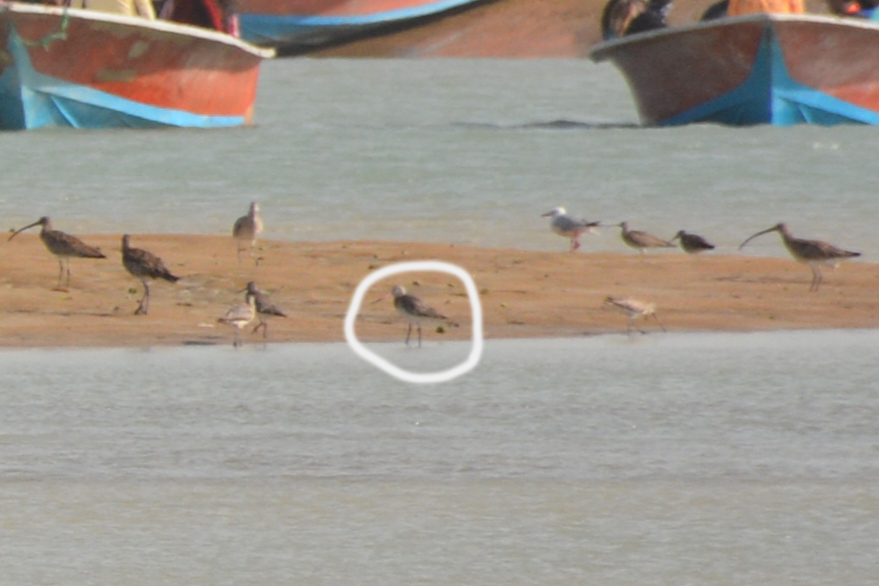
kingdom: Animalia
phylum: Chordata
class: Aves
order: Charadriiformes
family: Scolopacidae
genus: Limosa
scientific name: Limosa lapponica
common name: Bar-tailed godwit
